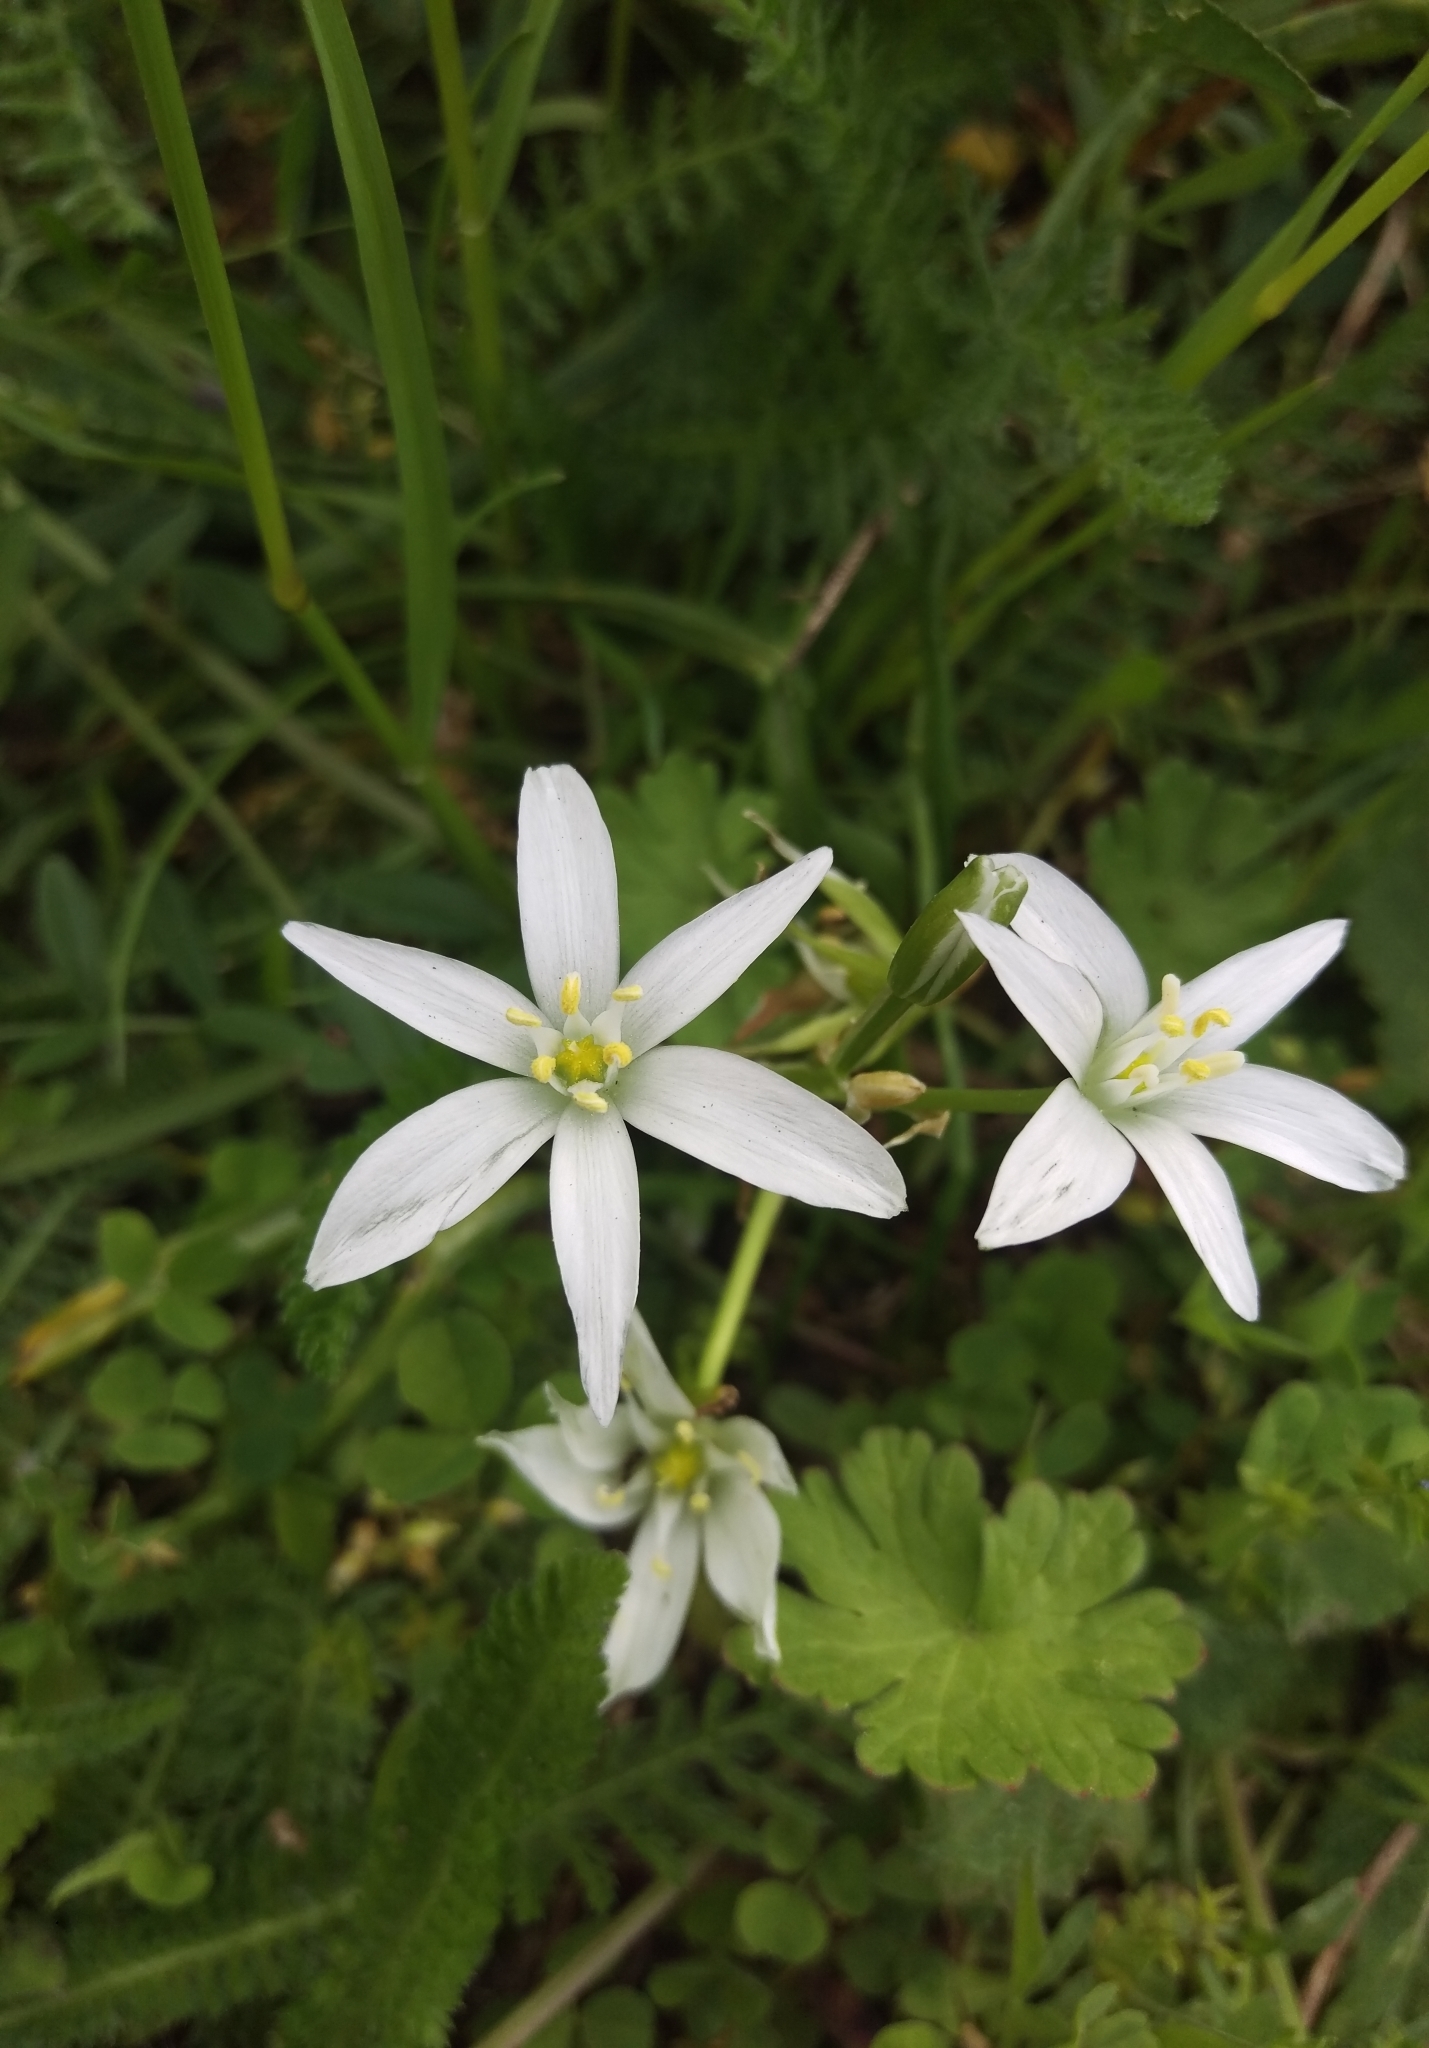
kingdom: Plantae
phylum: Tracheophyta
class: Liliopsida
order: Asparagales
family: Asparagaceae
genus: Ornithogalum
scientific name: Ornithogalum umbellatum
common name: Garden star-of-bethlehem
